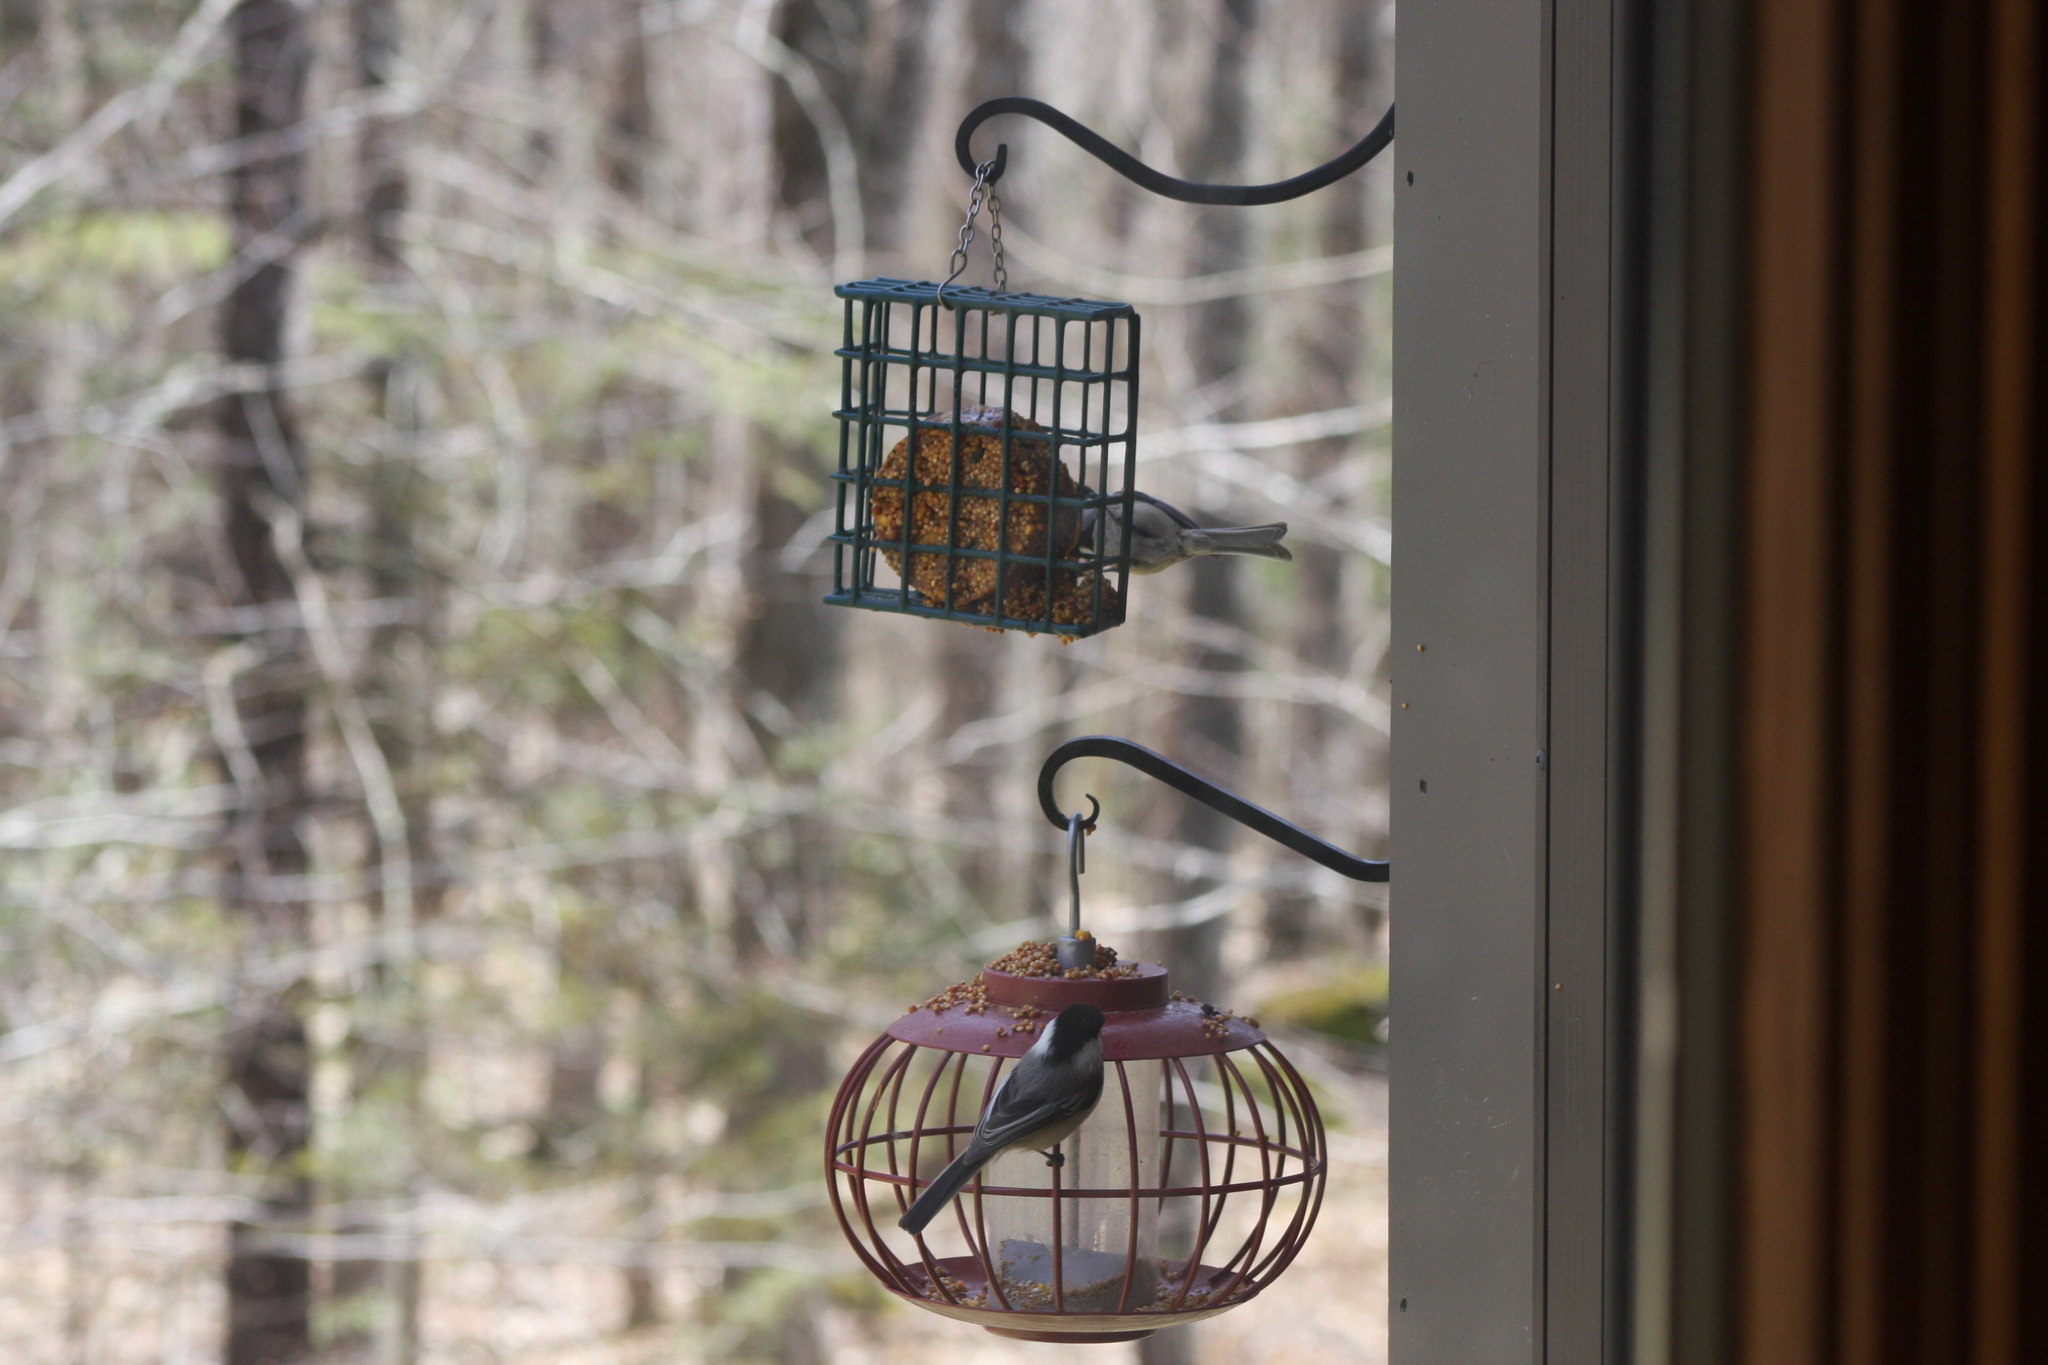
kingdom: Animalia
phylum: Chordata
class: Aves
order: Passeriformes
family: Paridae
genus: Poecile
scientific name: Poecile atricapillus
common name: Black-capped chickadee
